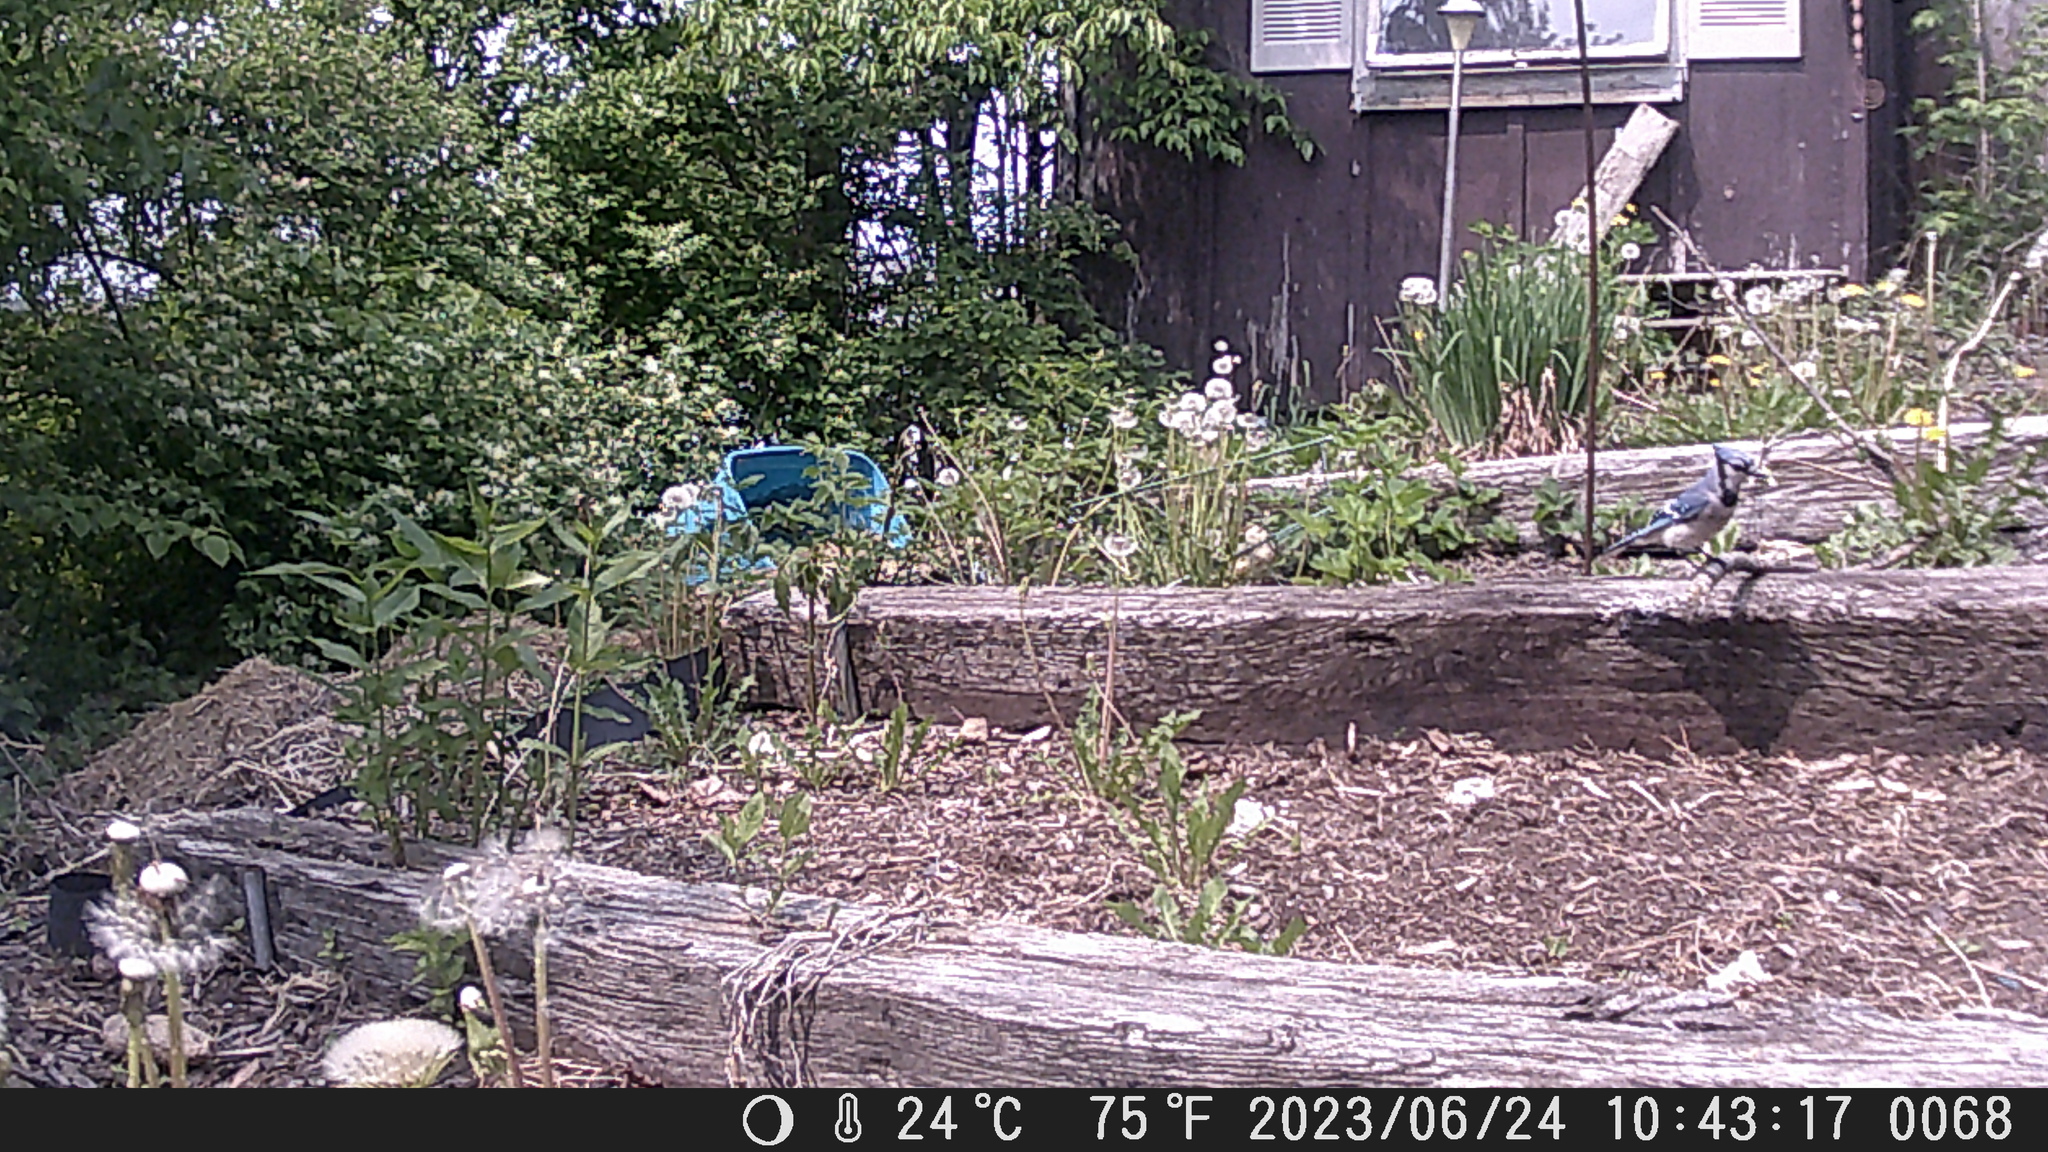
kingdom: Animalia
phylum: Chordata
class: Aves
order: Passeriformes
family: Corvidae
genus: Cyanocitta
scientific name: Cyanocitta cristata
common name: Blue jay
